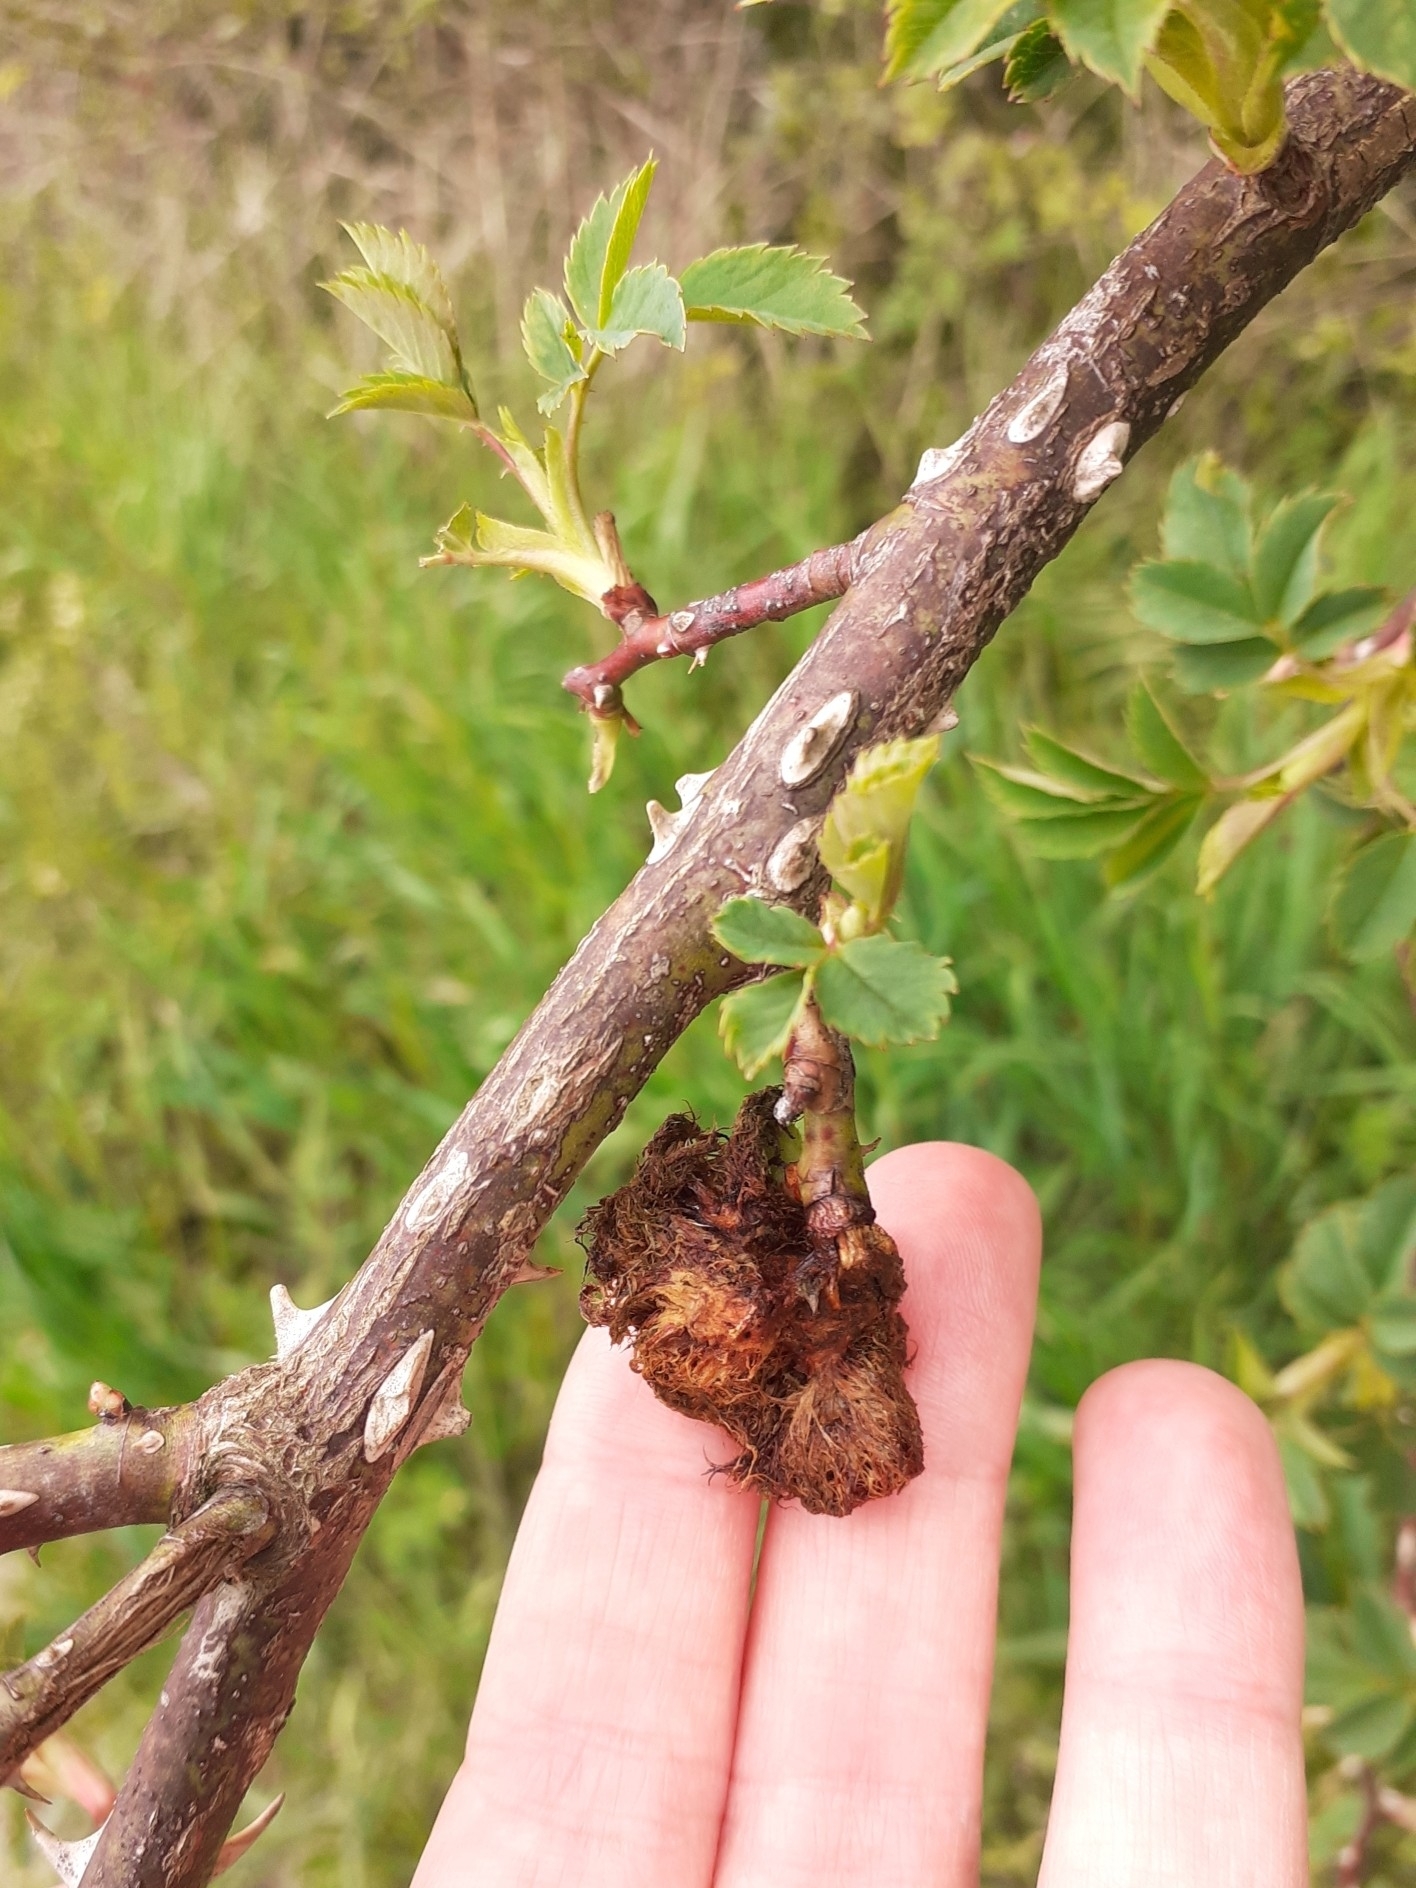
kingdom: Animalia
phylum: Arthropoda
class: Insecta
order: Hymenoptera
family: Cynipidae
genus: Diplolepis
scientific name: Diplolepis rosae
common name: Bedeguar gall
